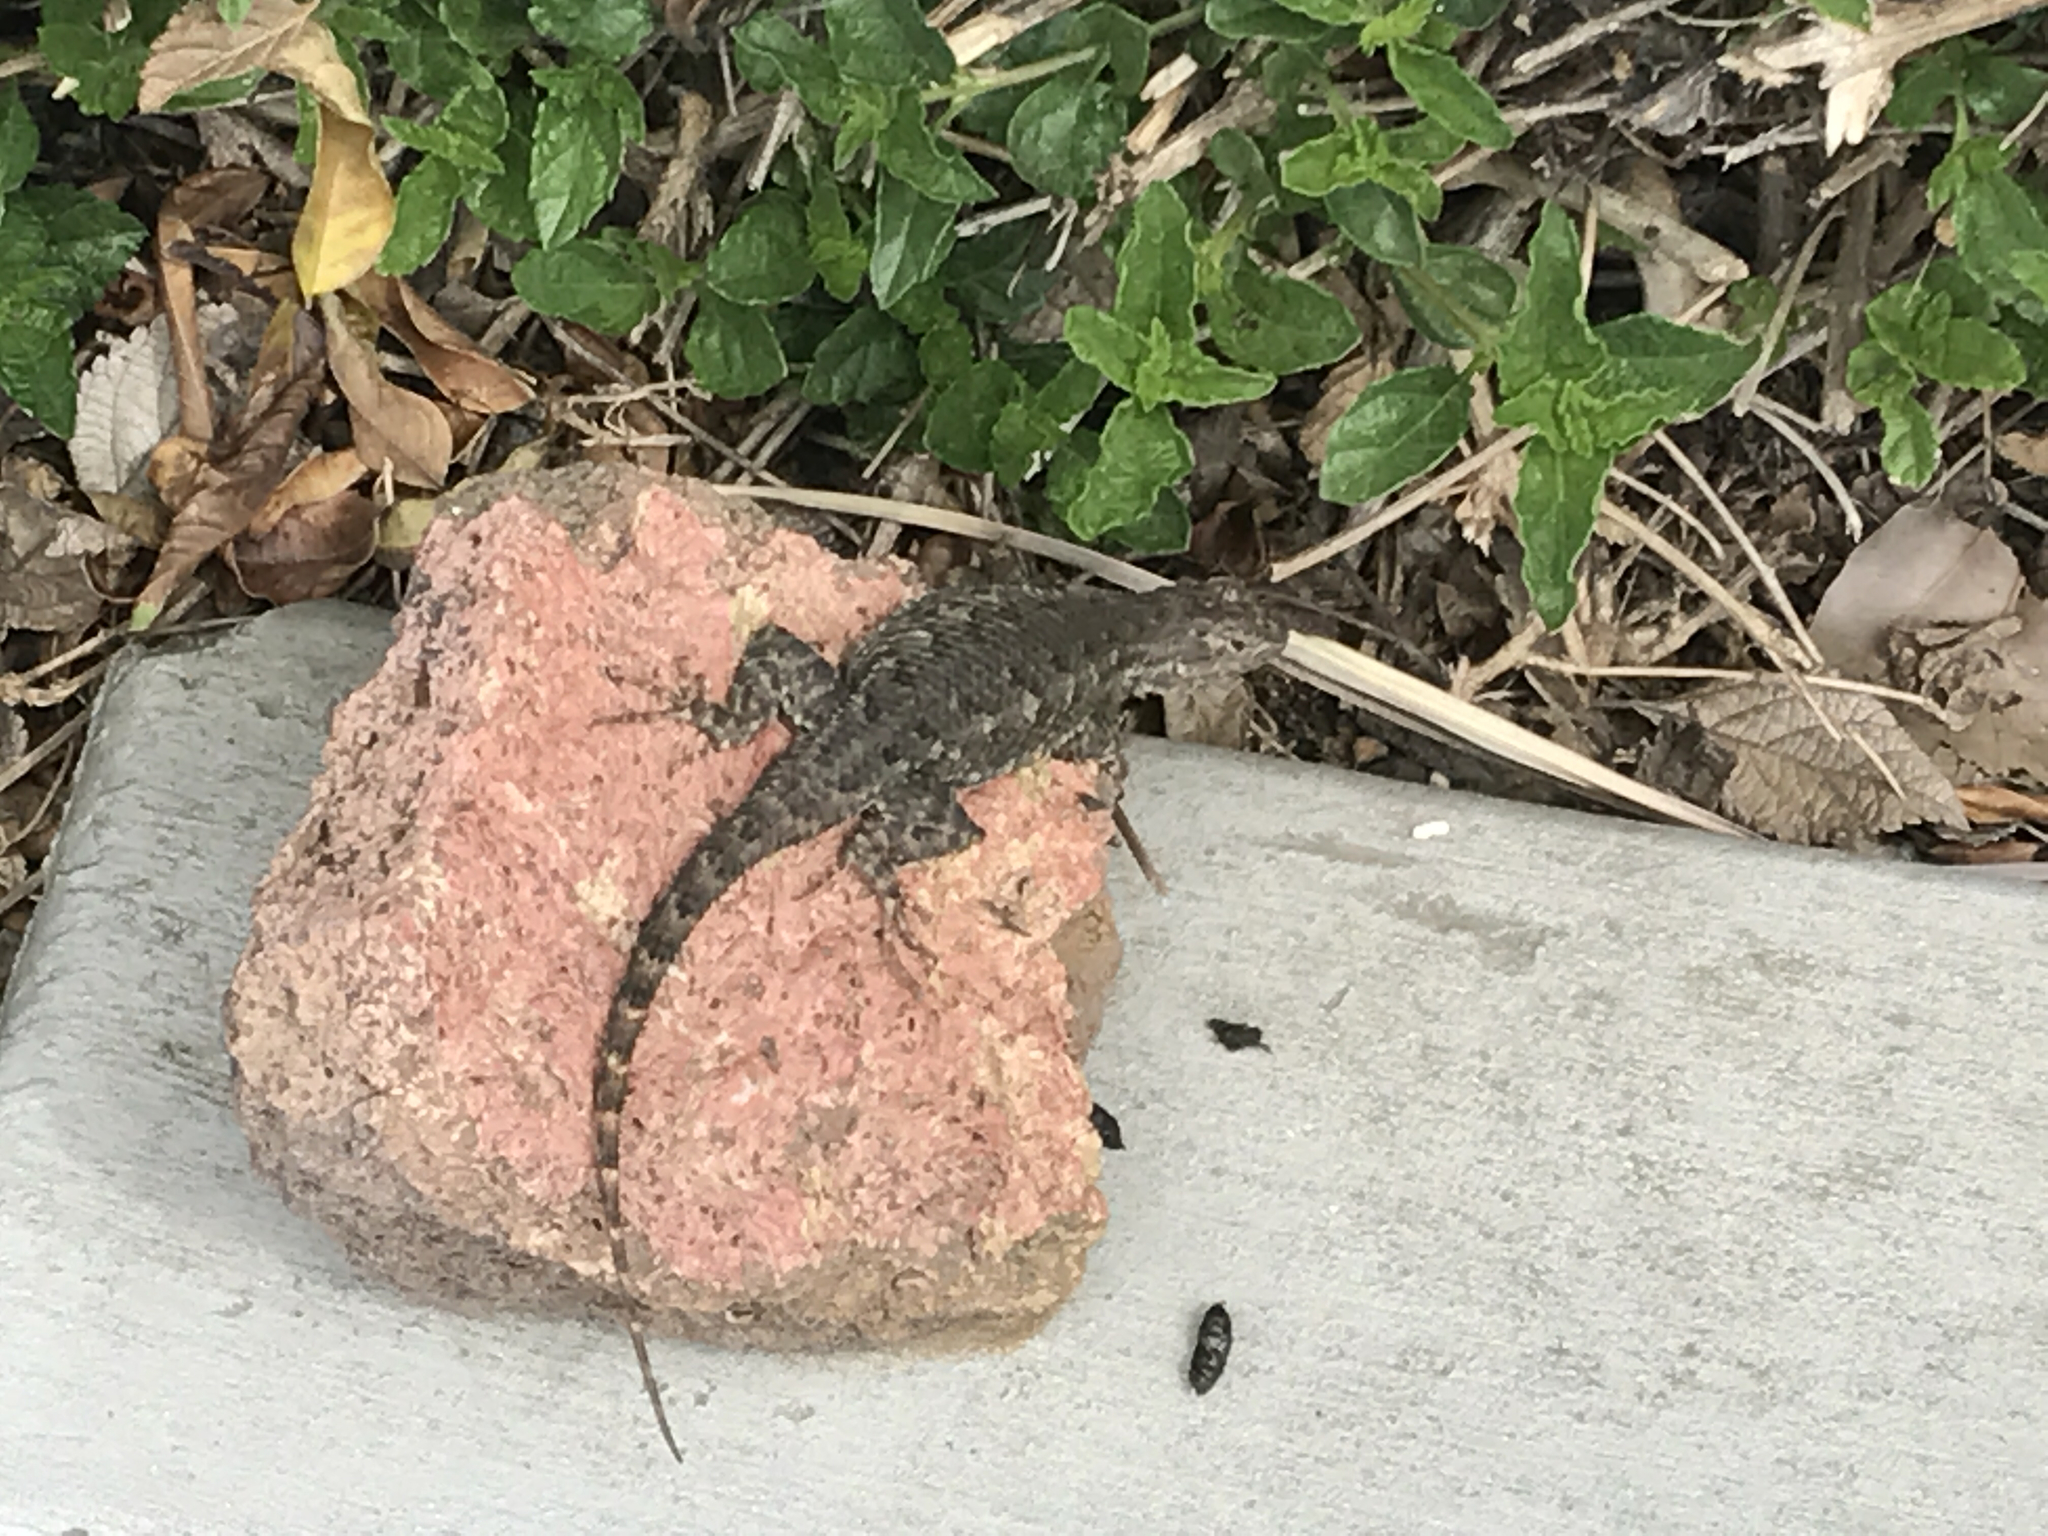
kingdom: Animalia
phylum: Chordata
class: Squamata
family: Phrynosomatidae
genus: Sceloporus
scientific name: Sceloporus occidentalis
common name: Western fence lizard
